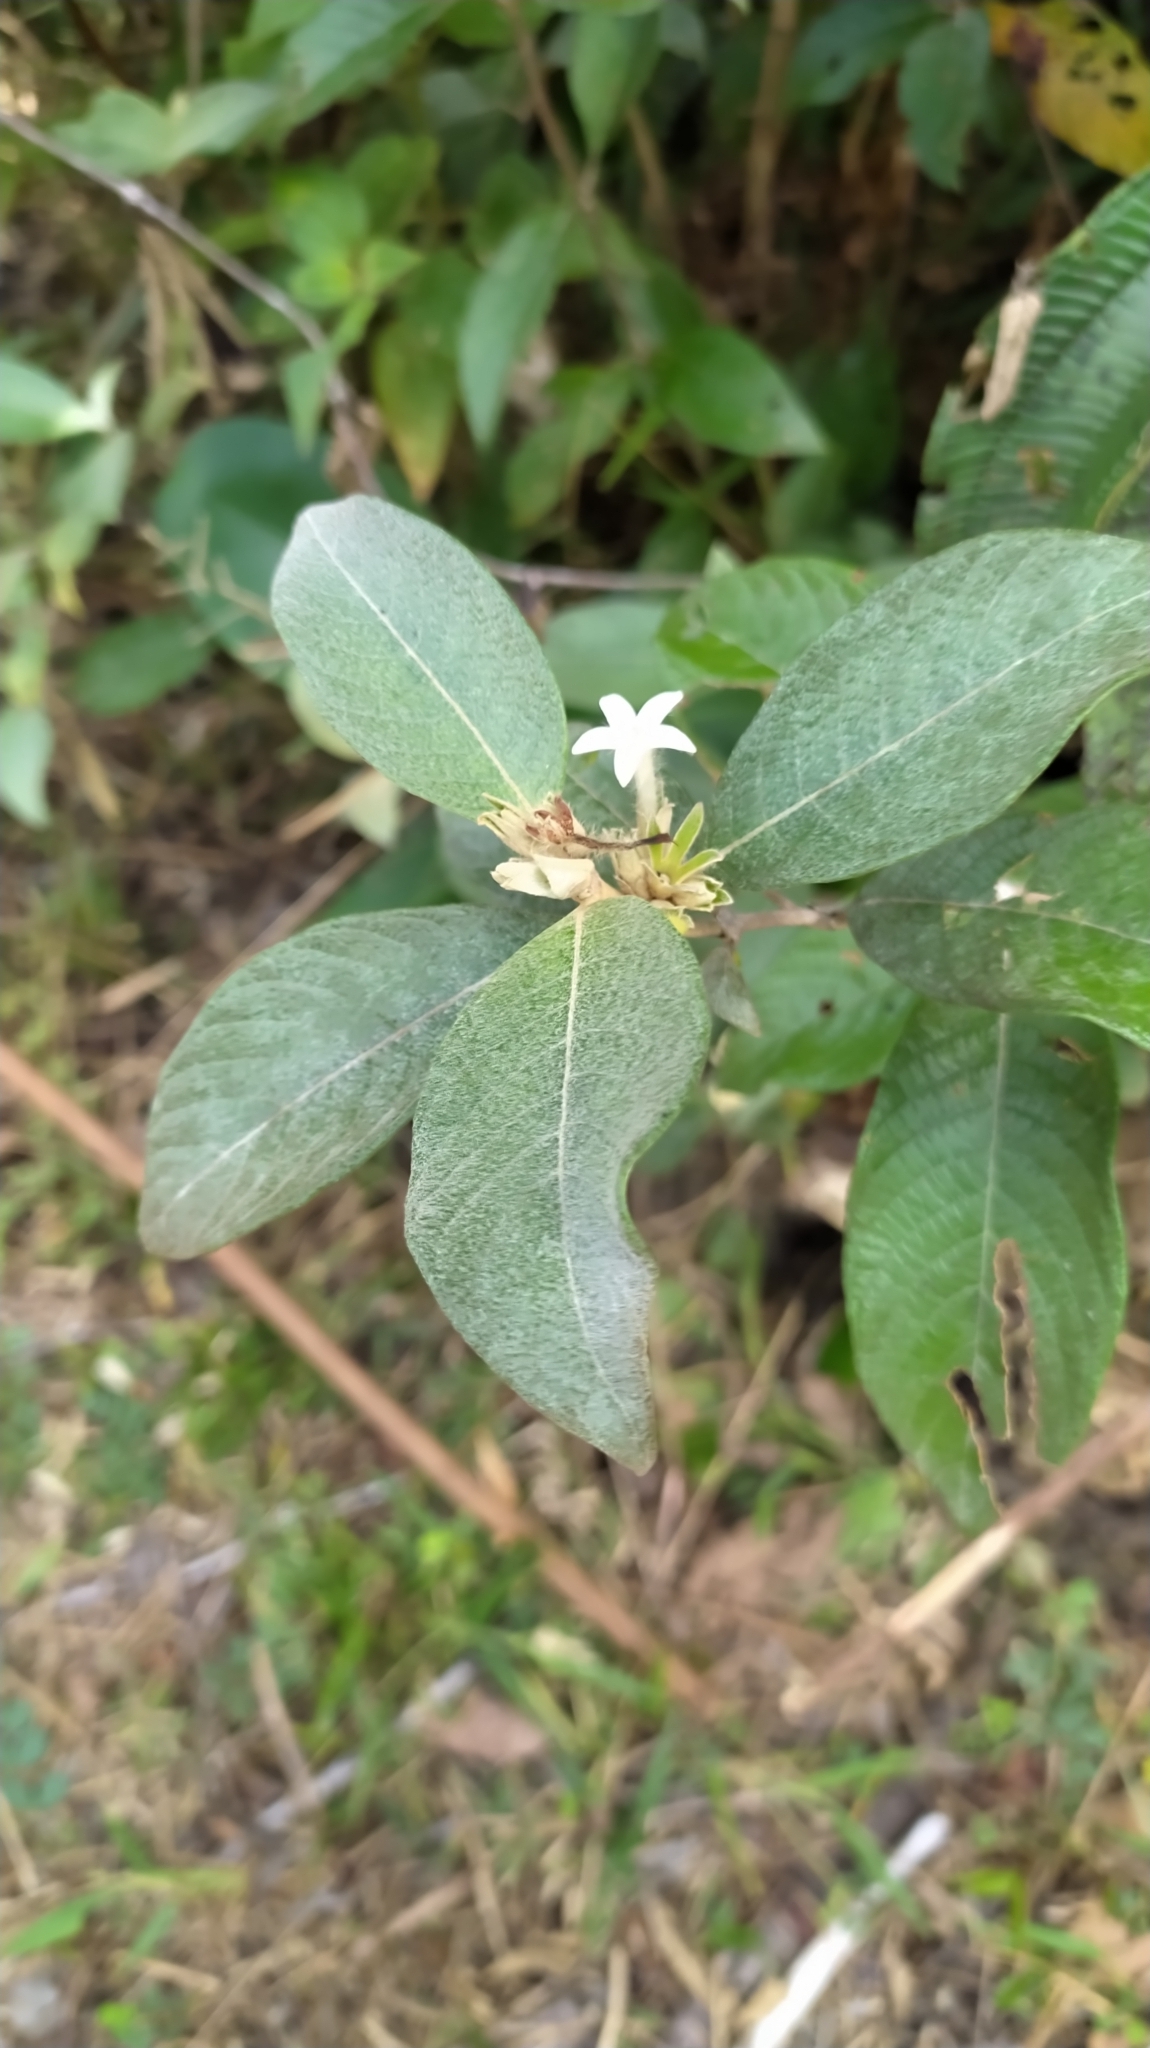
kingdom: Plantae
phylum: Tracheophyta
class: Magnoliopsida
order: Gentianales
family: Rubiaceae
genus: Sabicea
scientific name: Sabicea cinerea
